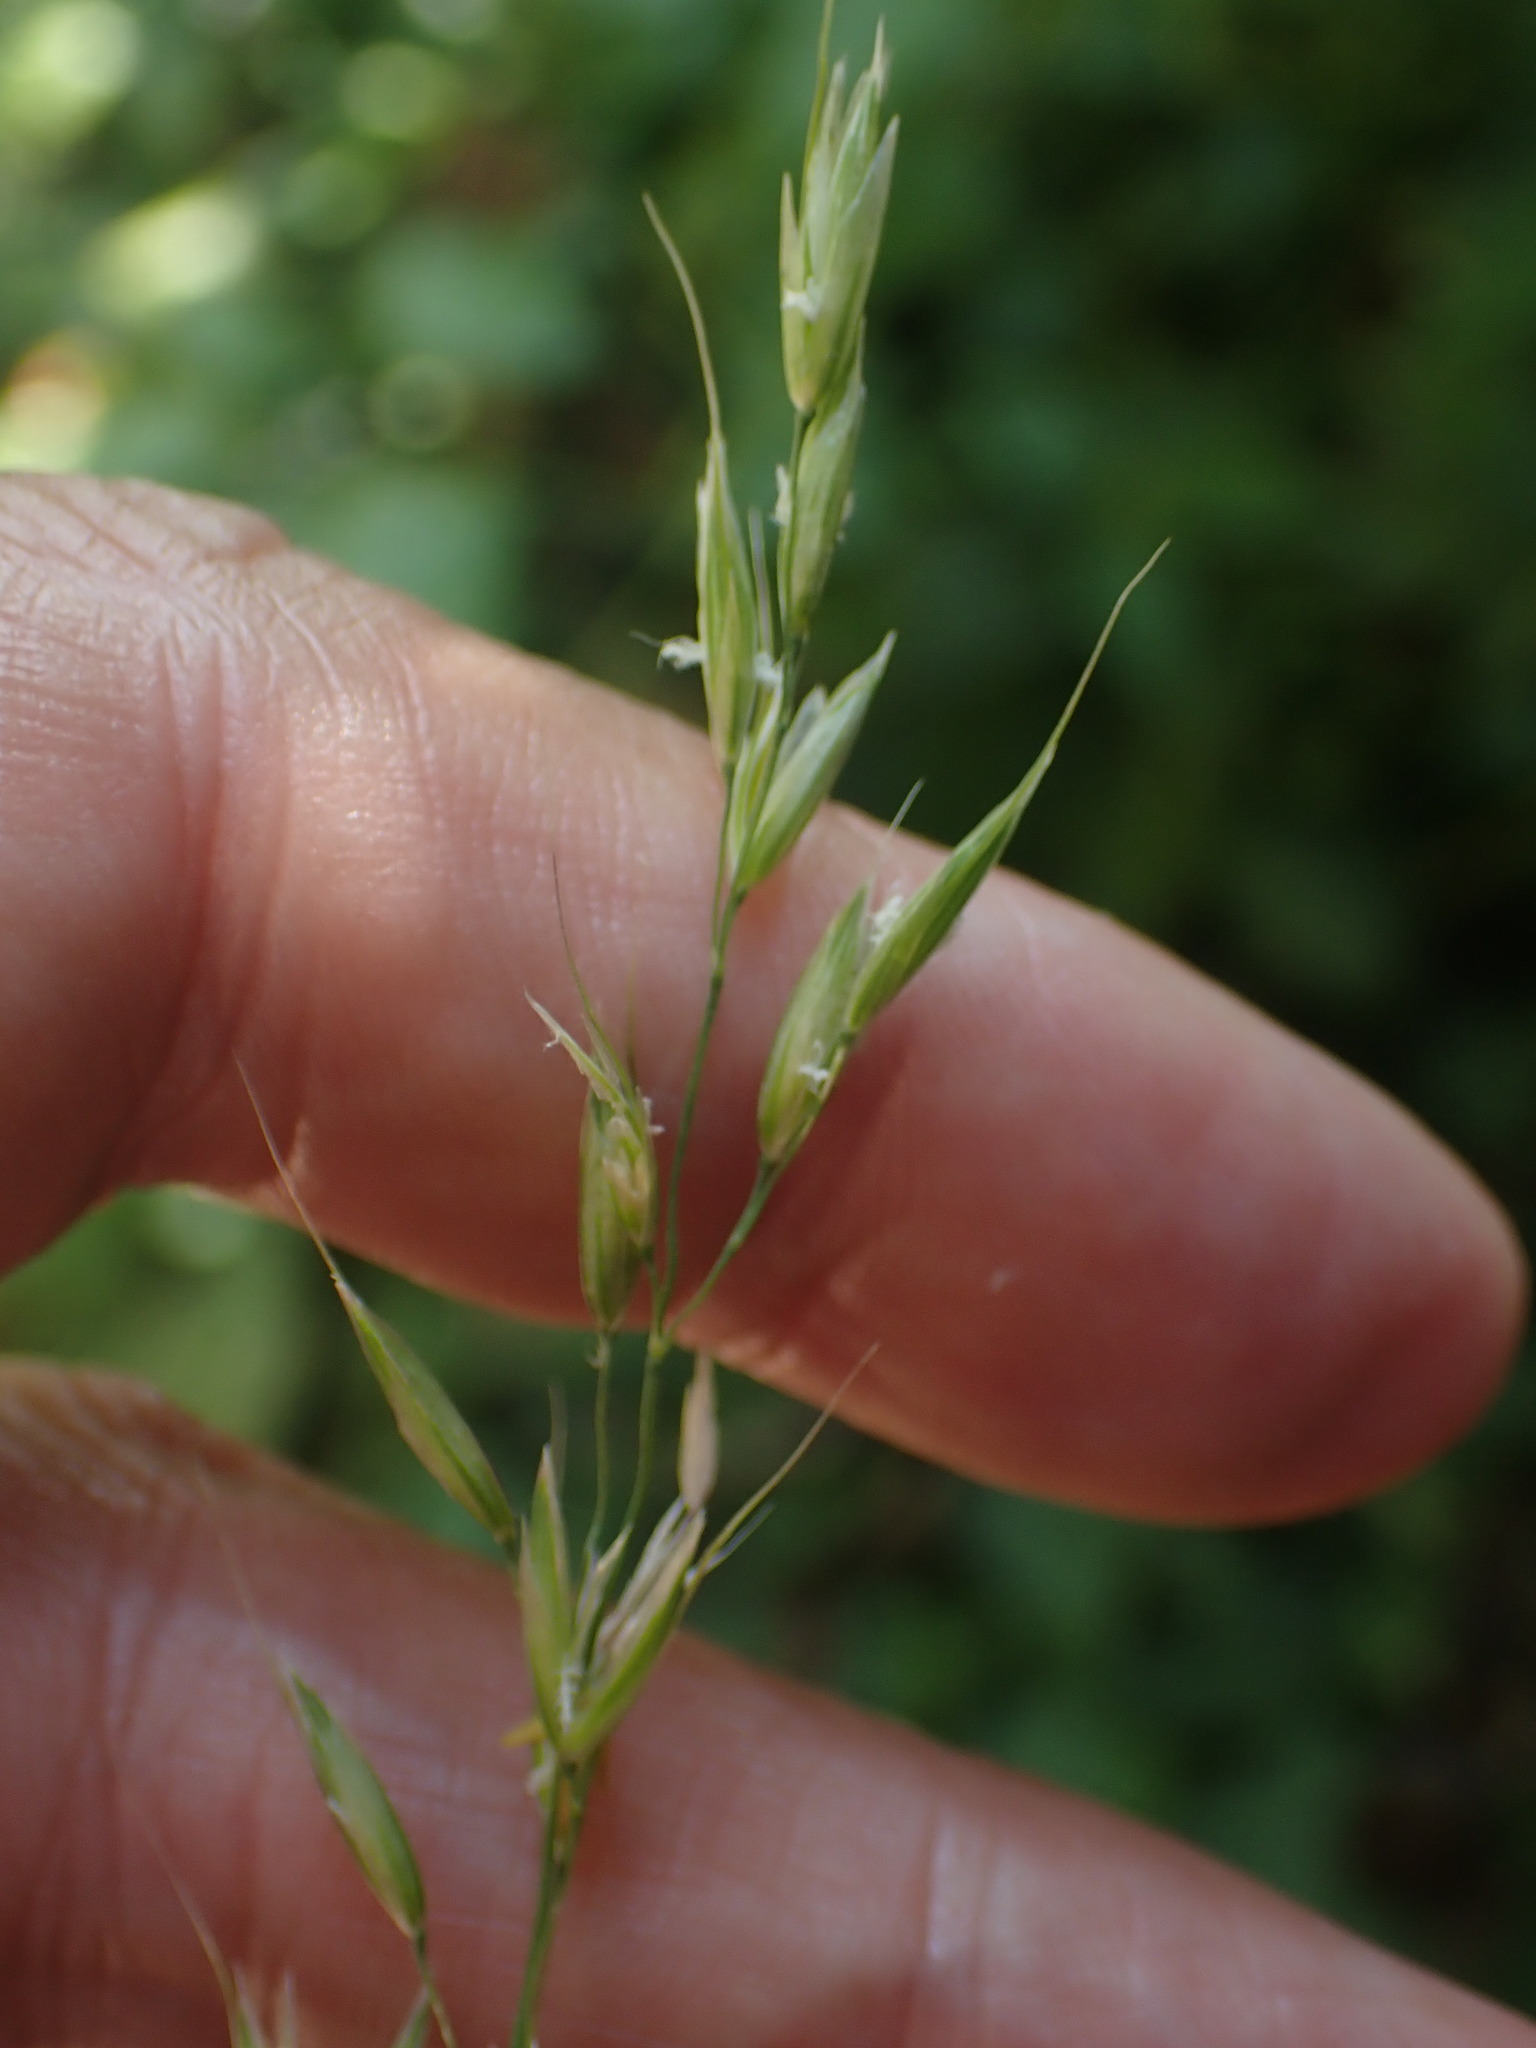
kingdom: Plantae
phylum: Tracheophyta
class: Liliopsida
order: Poales
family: Poaceae
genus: Arrhenatherum
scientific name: Arrhenatherum elatius
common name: Tall oatgrass
